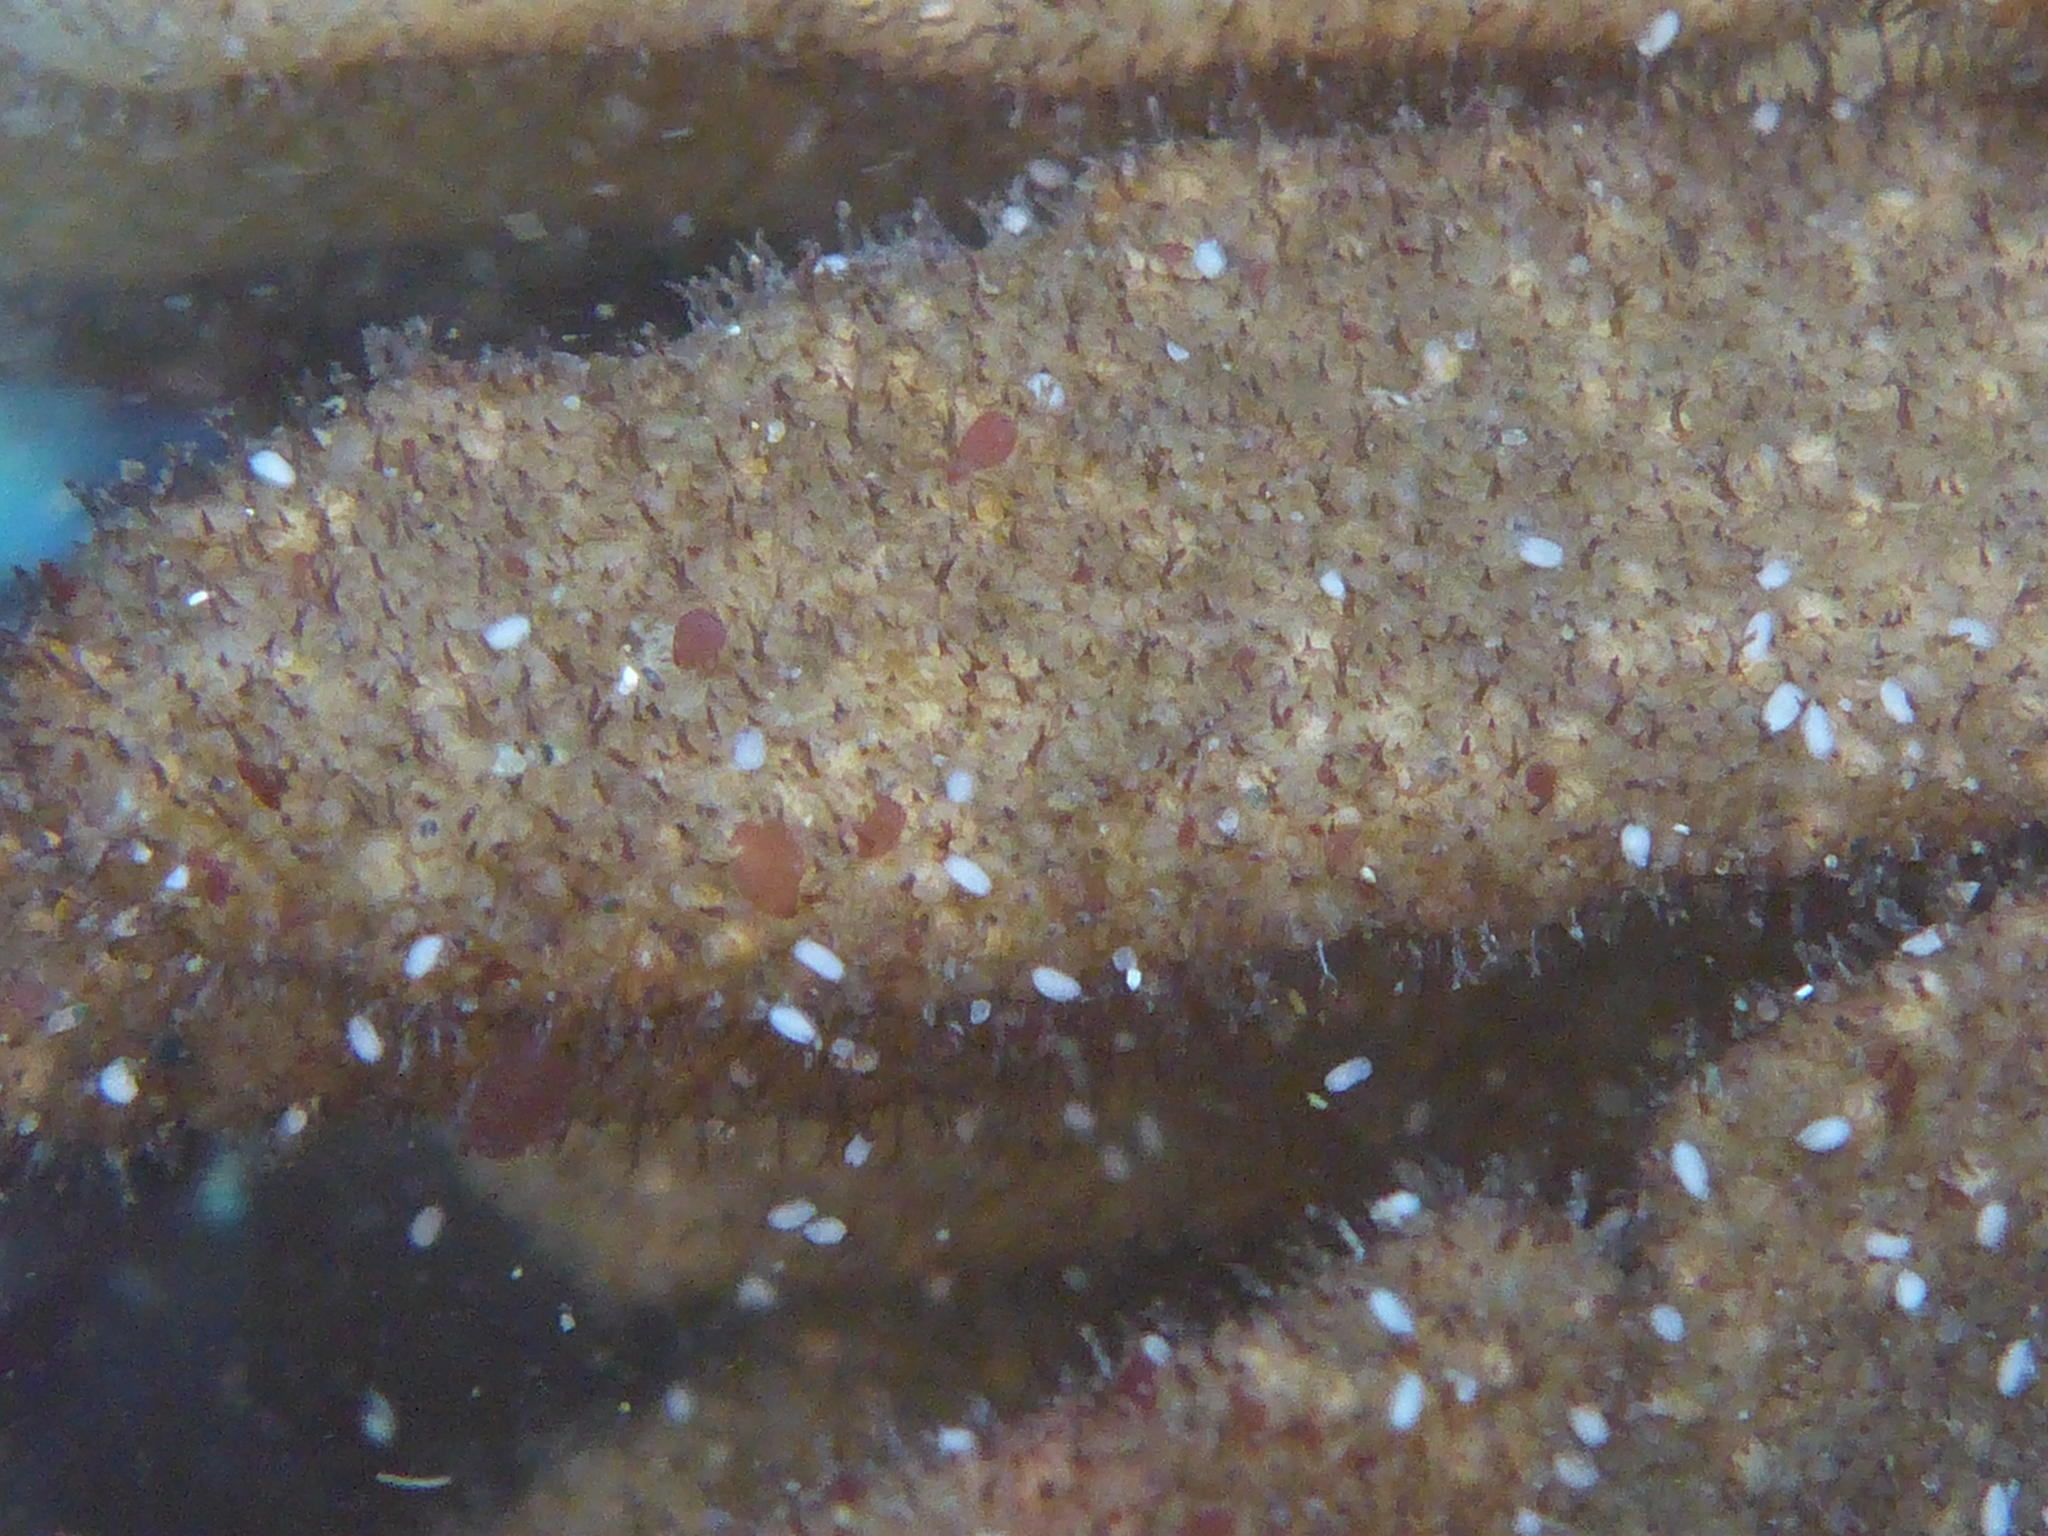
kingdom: Animalia
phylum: Bryozoa
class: Gymnolaemata
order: Ctenostomatida
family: Flustrellidridae
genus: Flustrellidra
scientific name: Flustrellidra corniculata
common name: Spiny leather bryozoan
